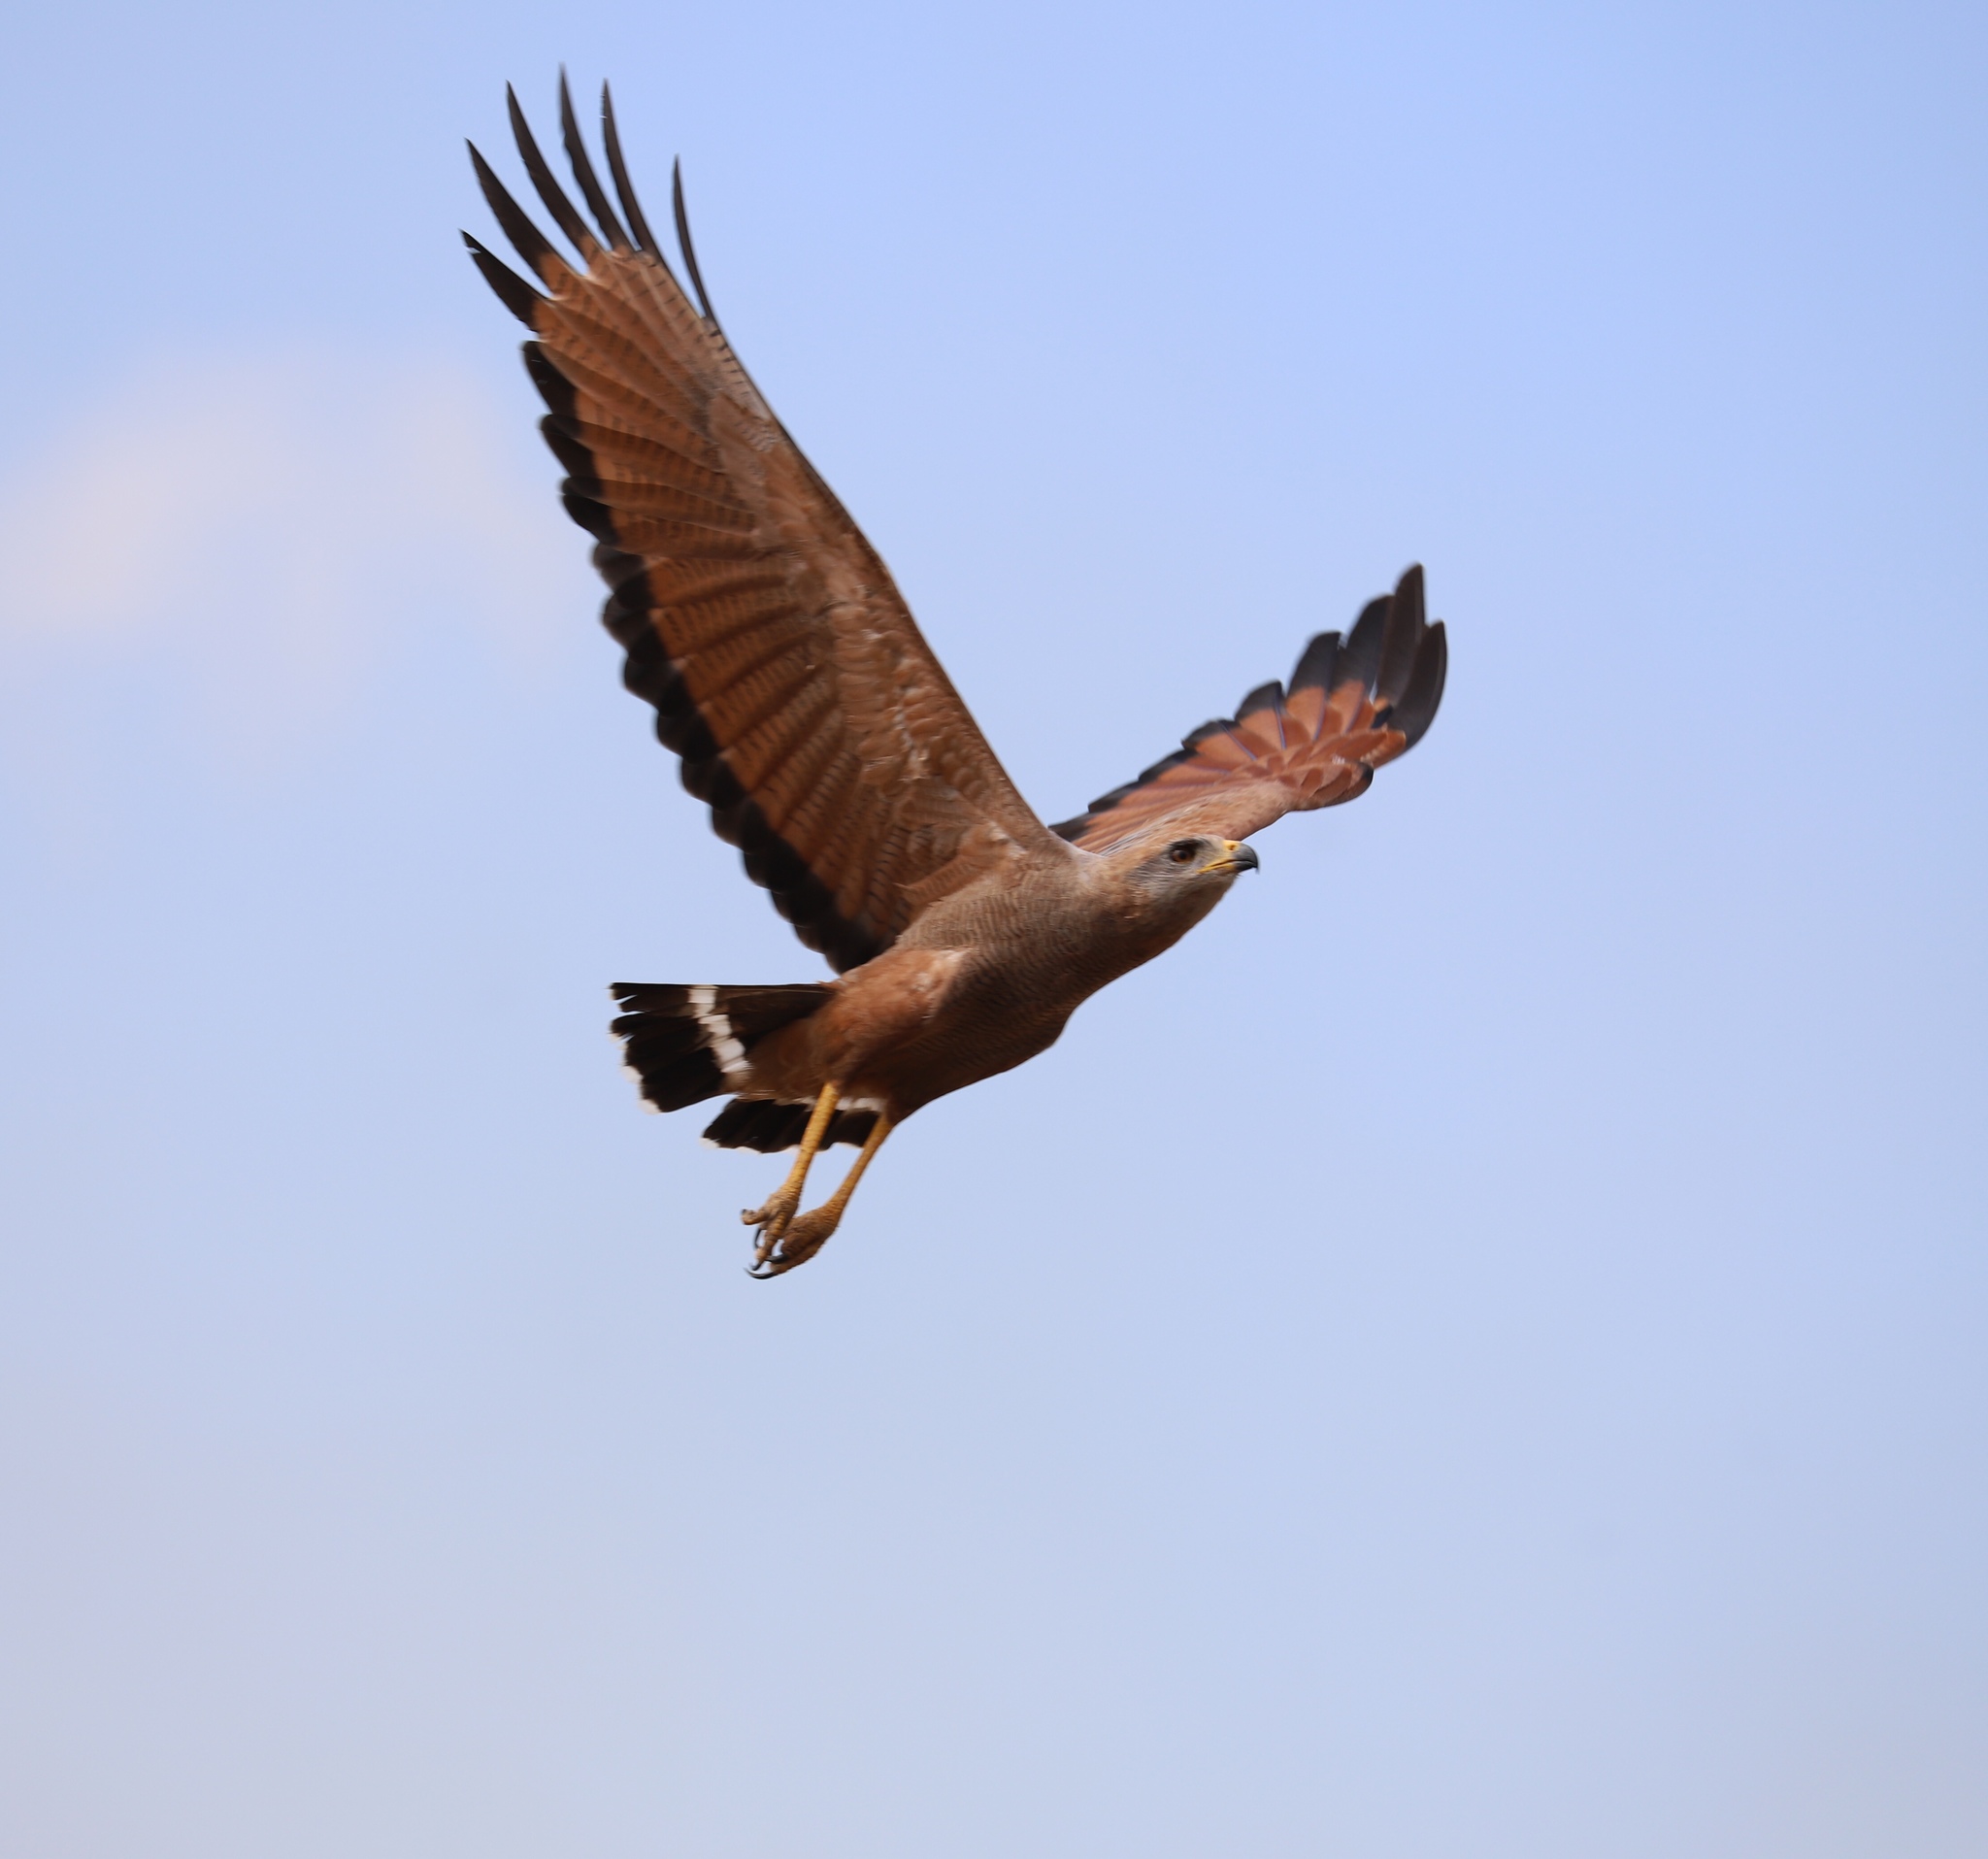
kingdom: Animalia
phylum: Chordata
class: Aves
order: Accipitriformes
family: Accipitridae
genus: Buteogallus
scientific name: Buteogallus meridionalis
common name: Savanna hawk
